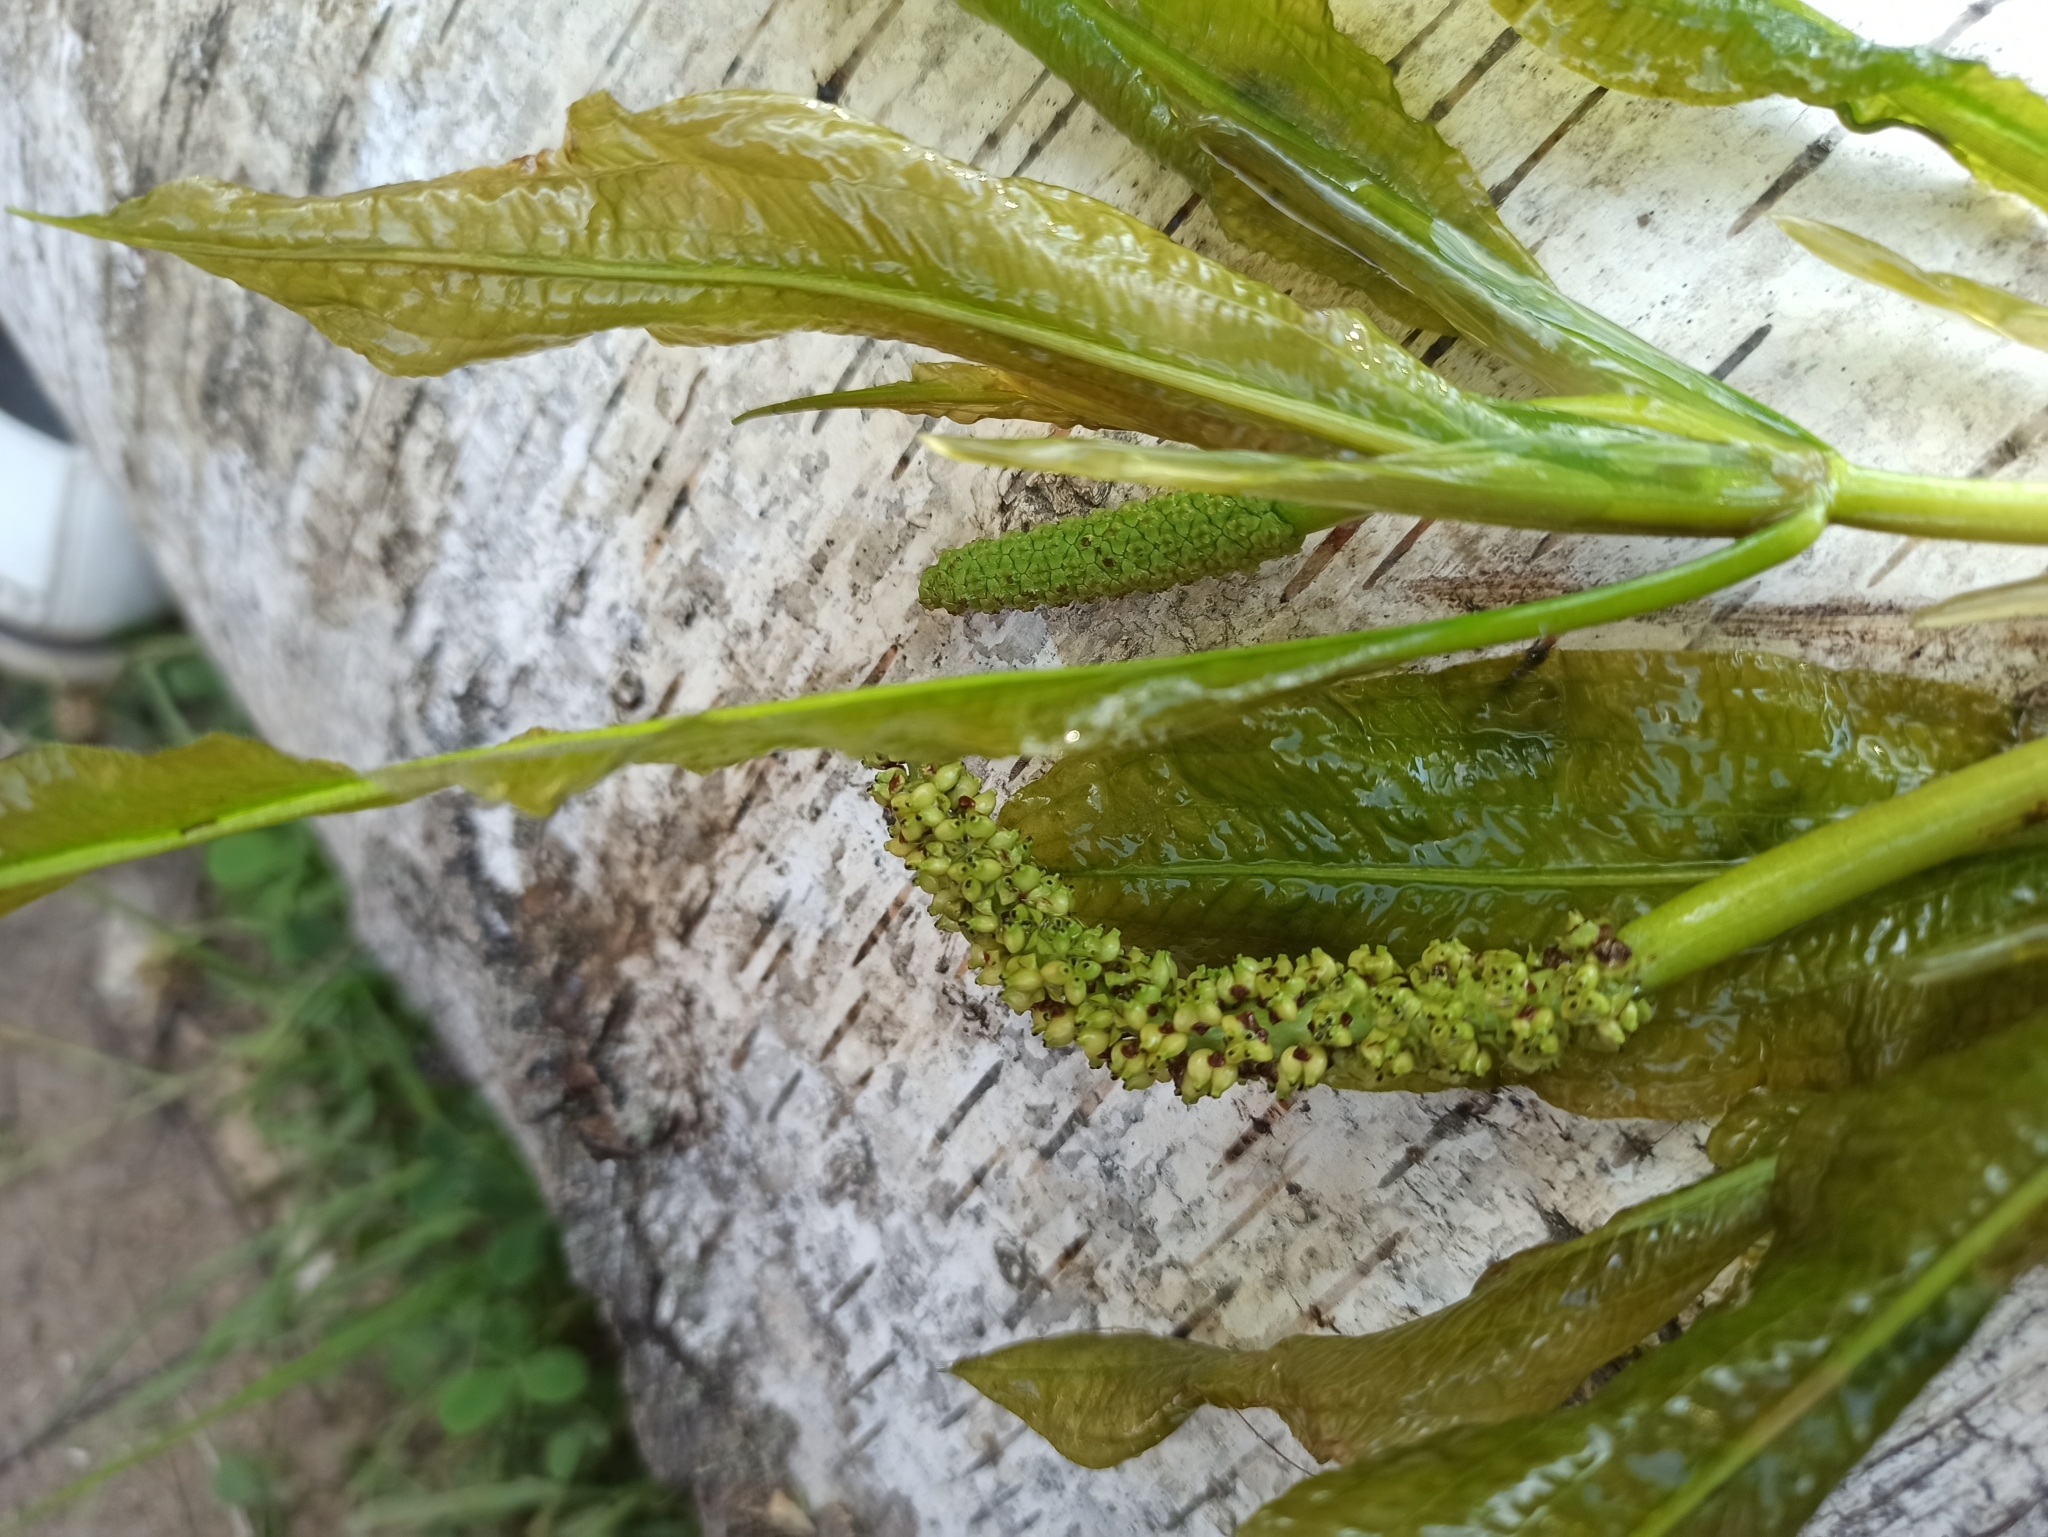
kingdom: Plantae
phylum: Tracheophyta
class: Liliopsida
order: Alismatales
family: Potamogetonaceae
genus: Potamogeton
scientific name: Potamogeton lucens
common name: Shining pondweed
